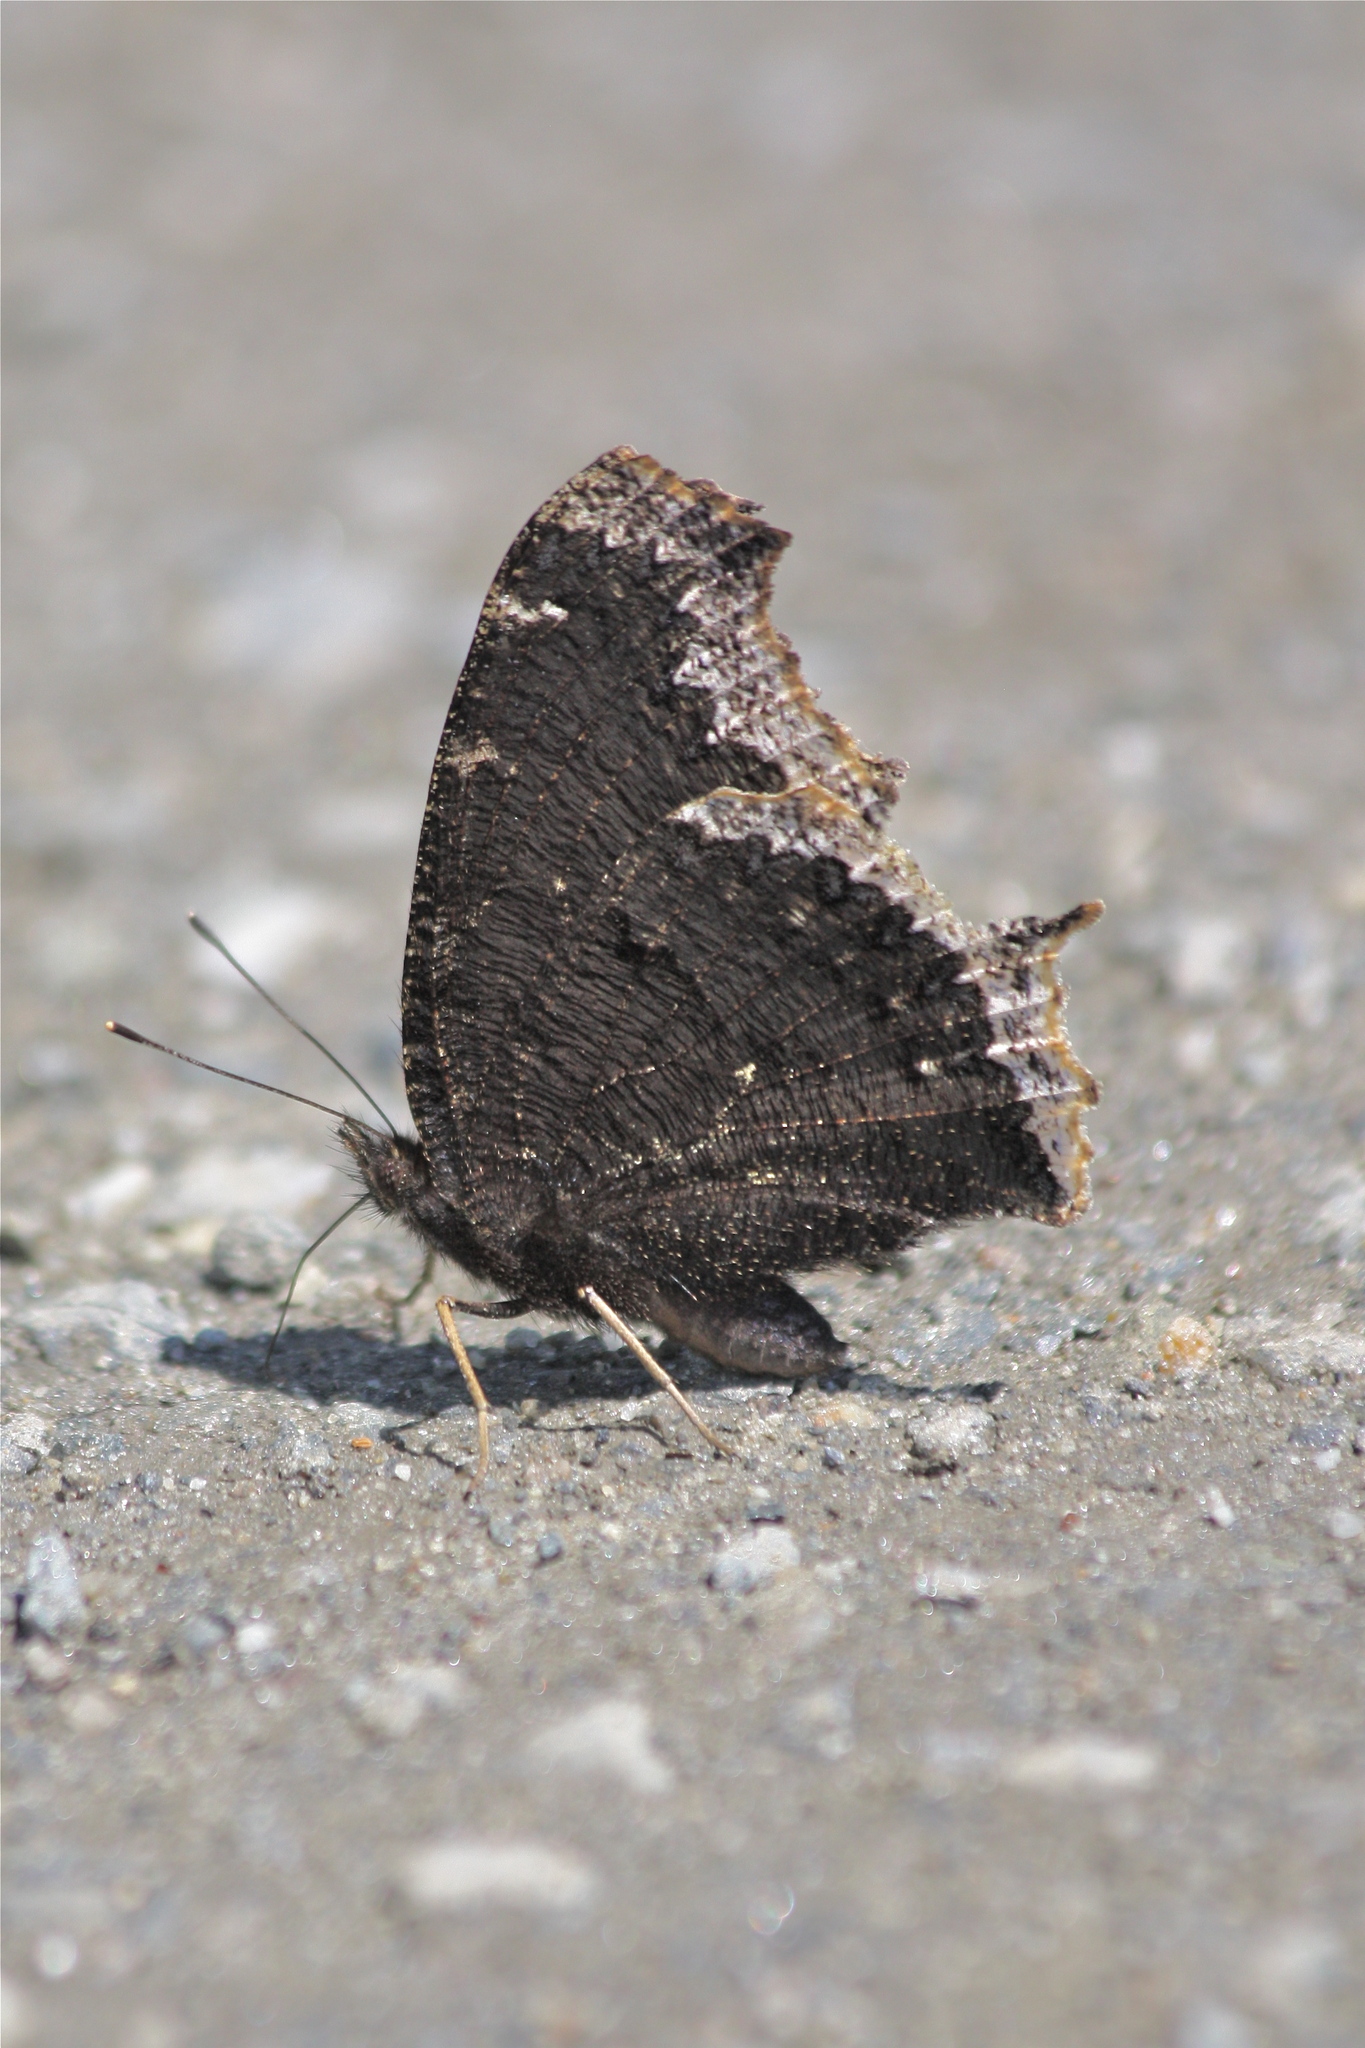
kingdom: Animalia
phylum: Arthropoda
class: Insecta
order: Lepidoptera
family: Nymphalidae
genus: Nymphalis
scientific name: Nymphalis antiopa
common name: Camberwell beauty
